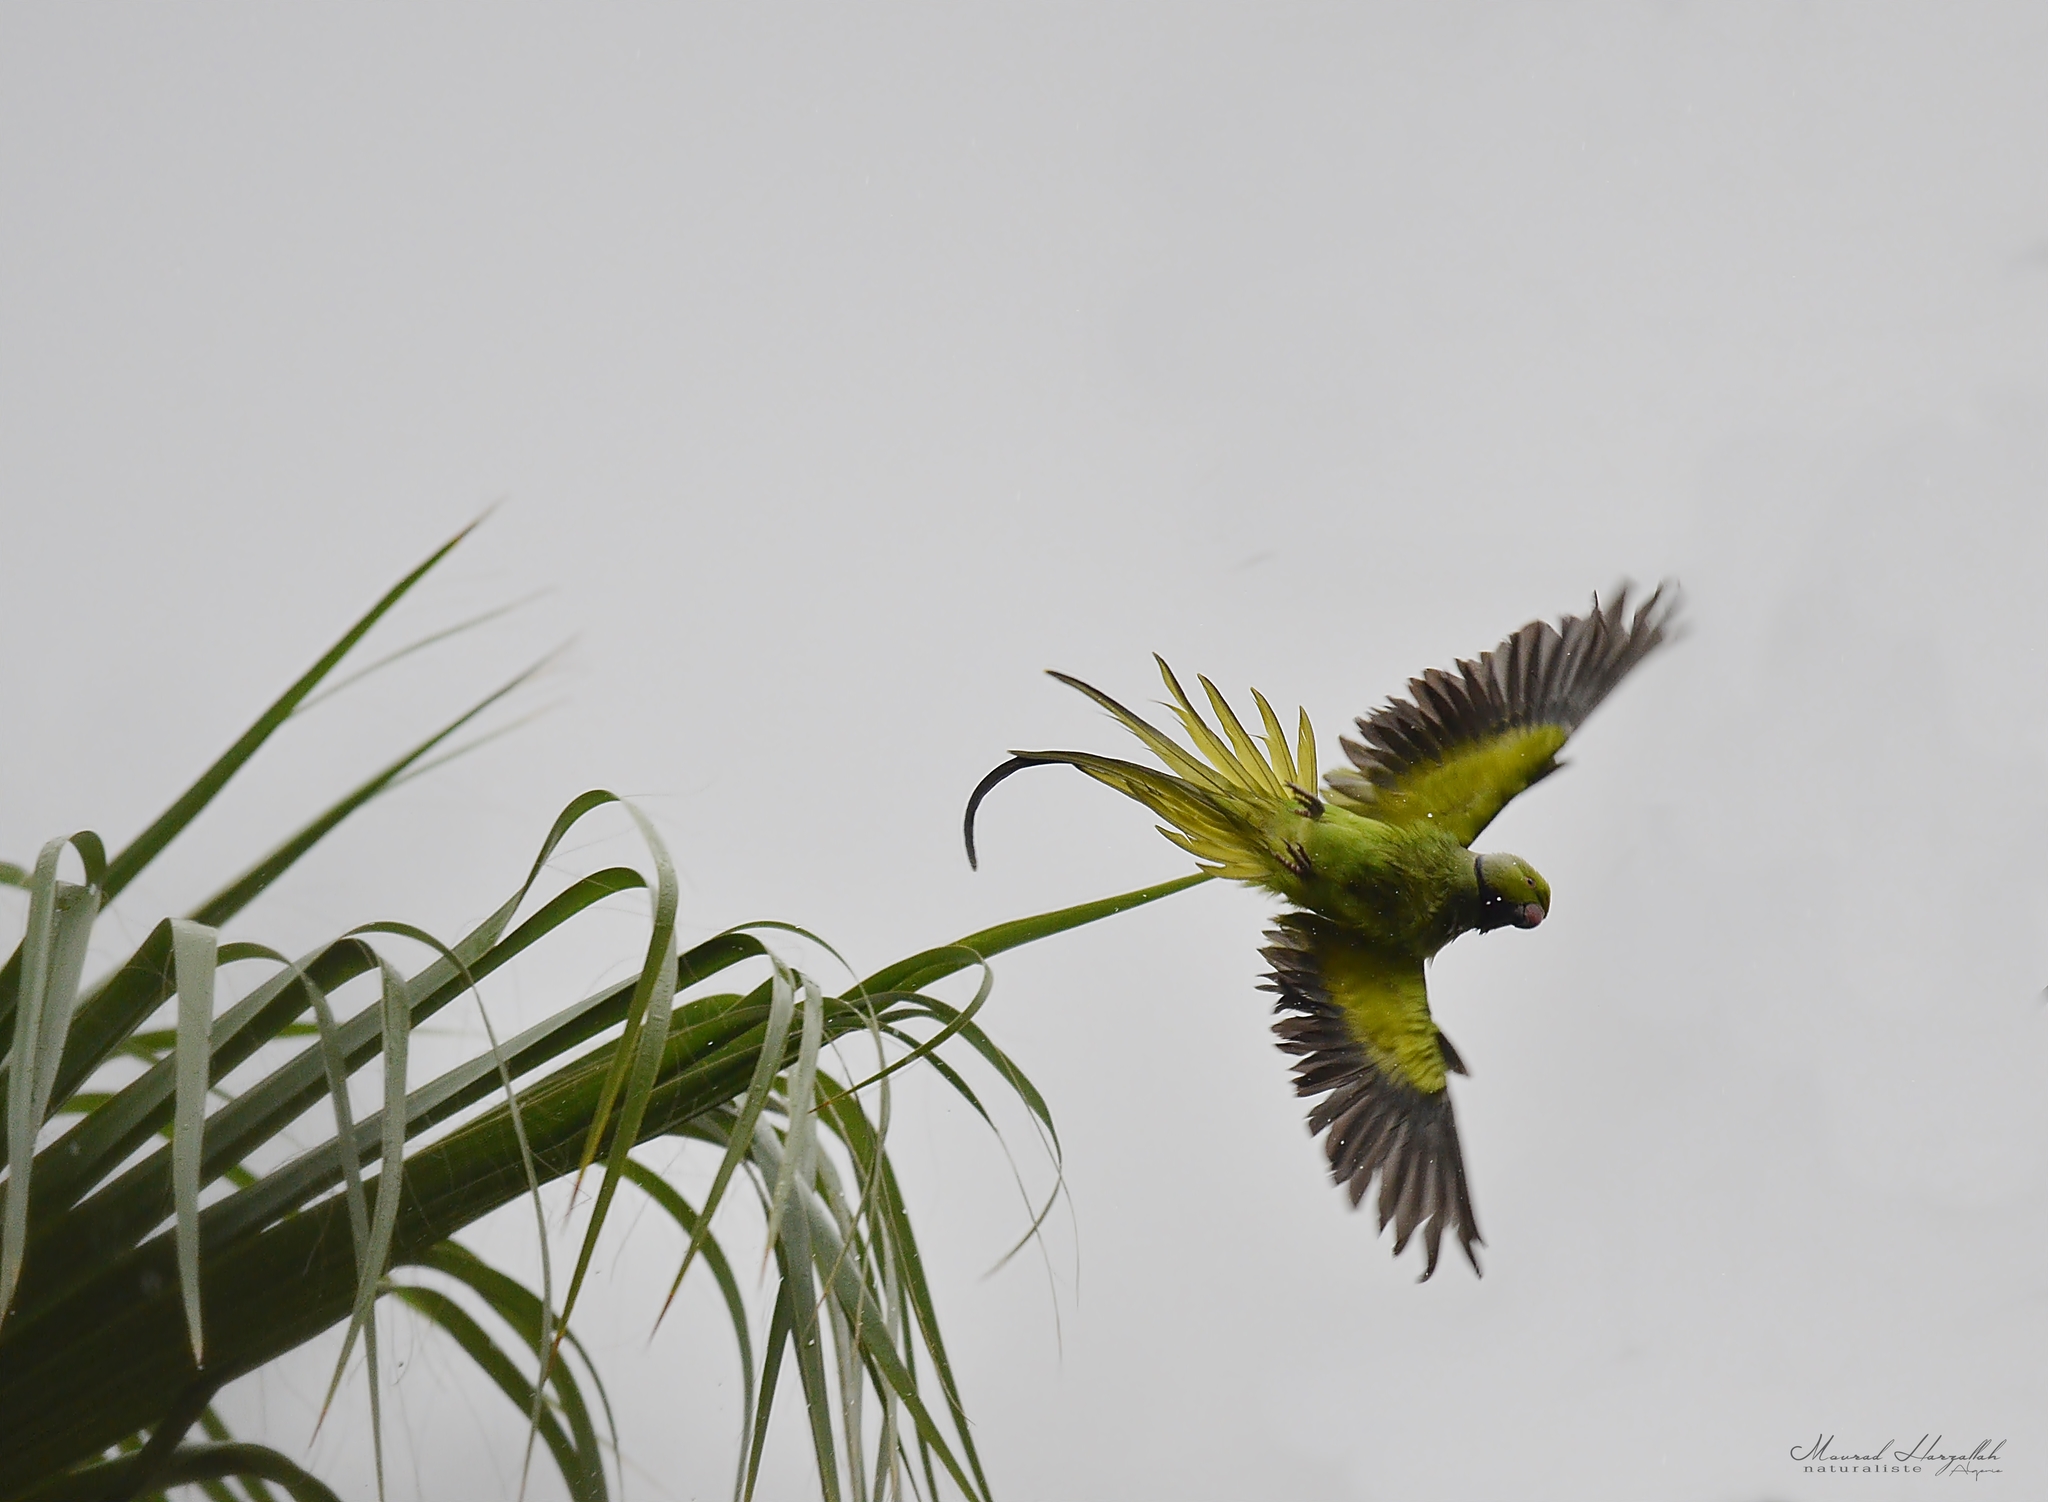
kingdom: Animalia
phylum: Chordata
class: Aves
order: Psittaciformes
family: Psittacidae
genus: Psittacula
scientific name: Psittacula krameri
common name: Rose-ringed parakeet
